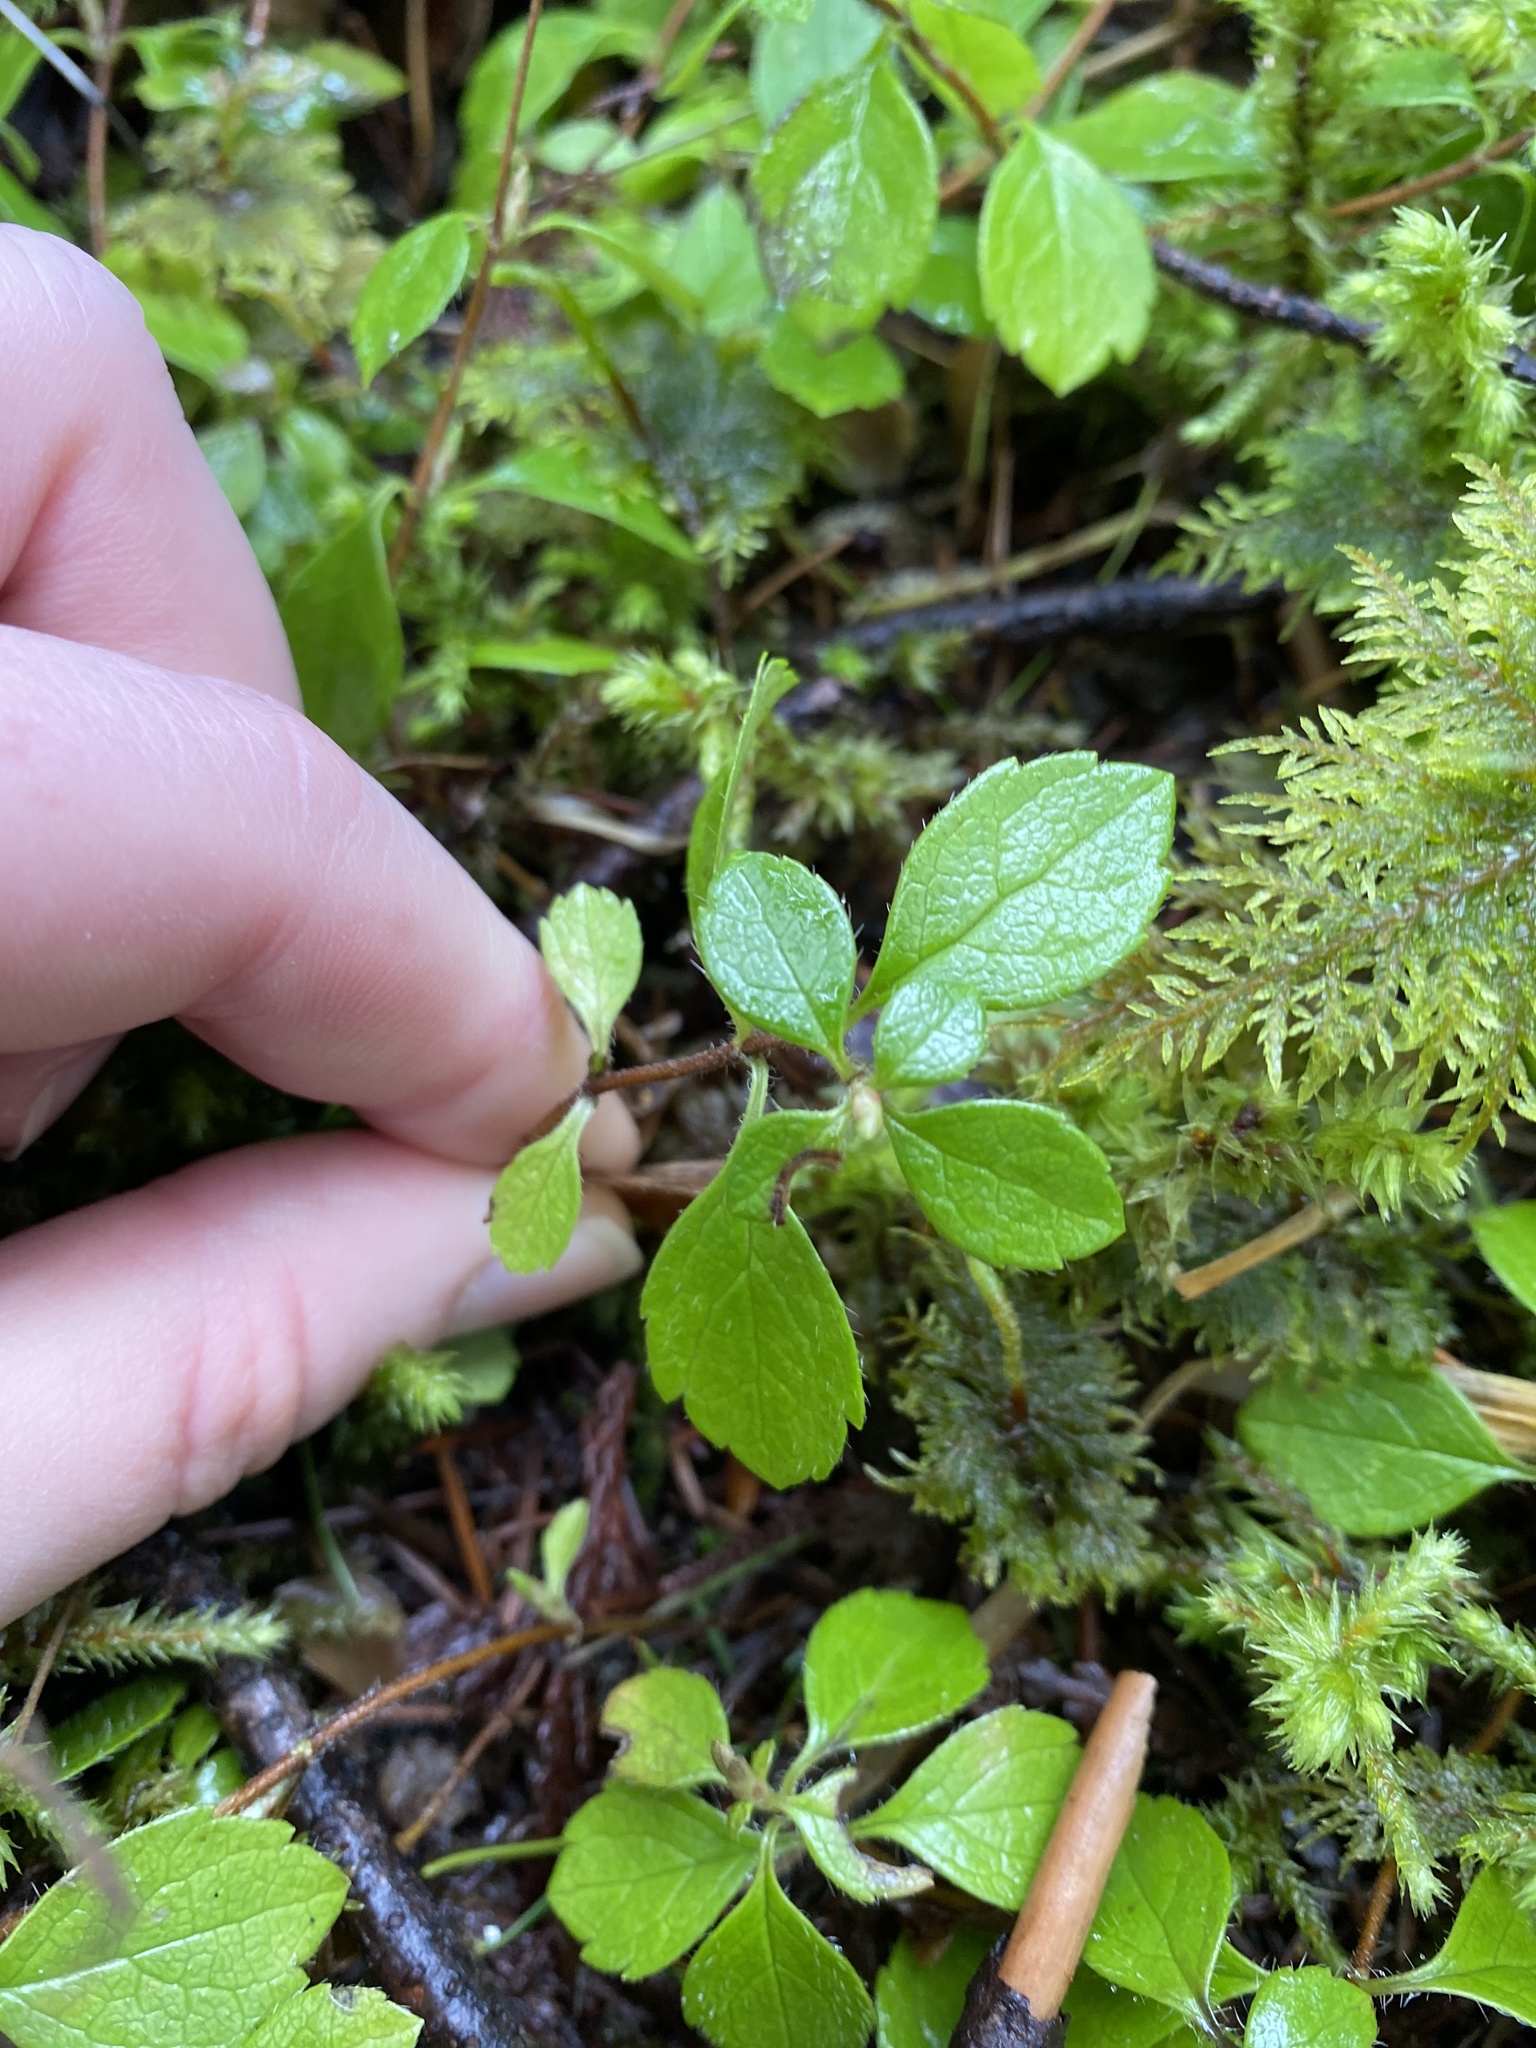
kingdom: Plantae
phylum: Tracheophyta
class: Magnoliopsida
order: Dipsacales
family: Caprifoliaceae
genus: Linnaea
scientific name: Linnaea borealis
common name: Twinflower
